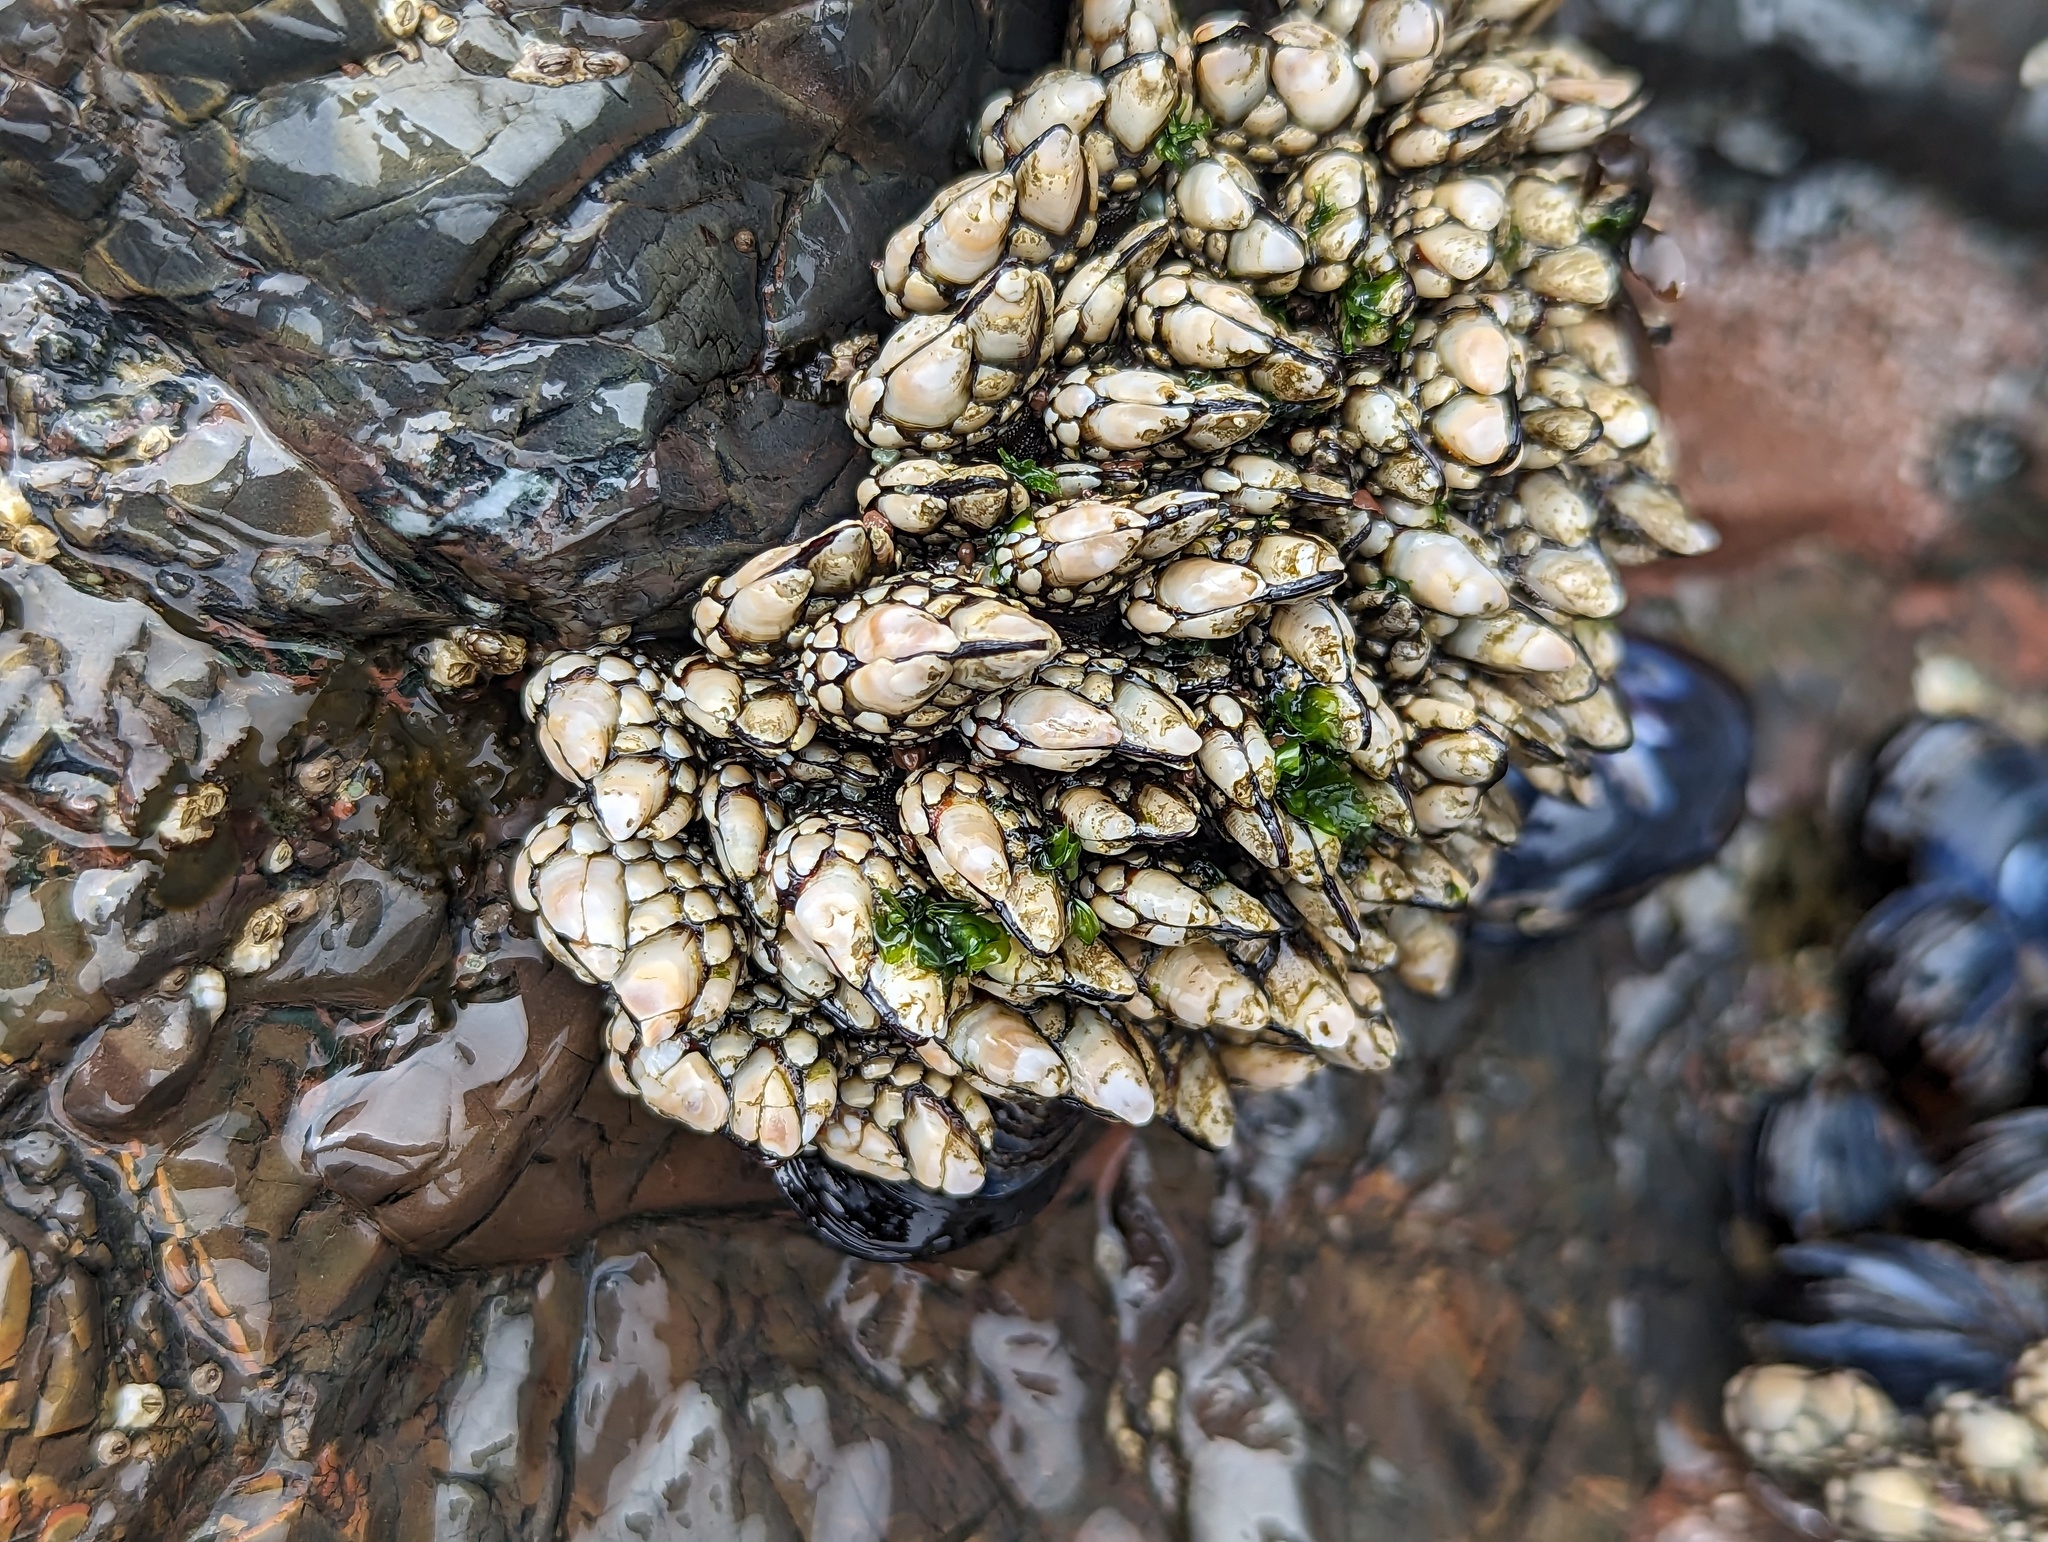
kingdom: Animalia
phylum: Arthropoda
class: Maxillopoda
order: Pedunculata
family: Pollicipedidae
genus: Pollicipes
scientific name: Pollicipes polymerus
